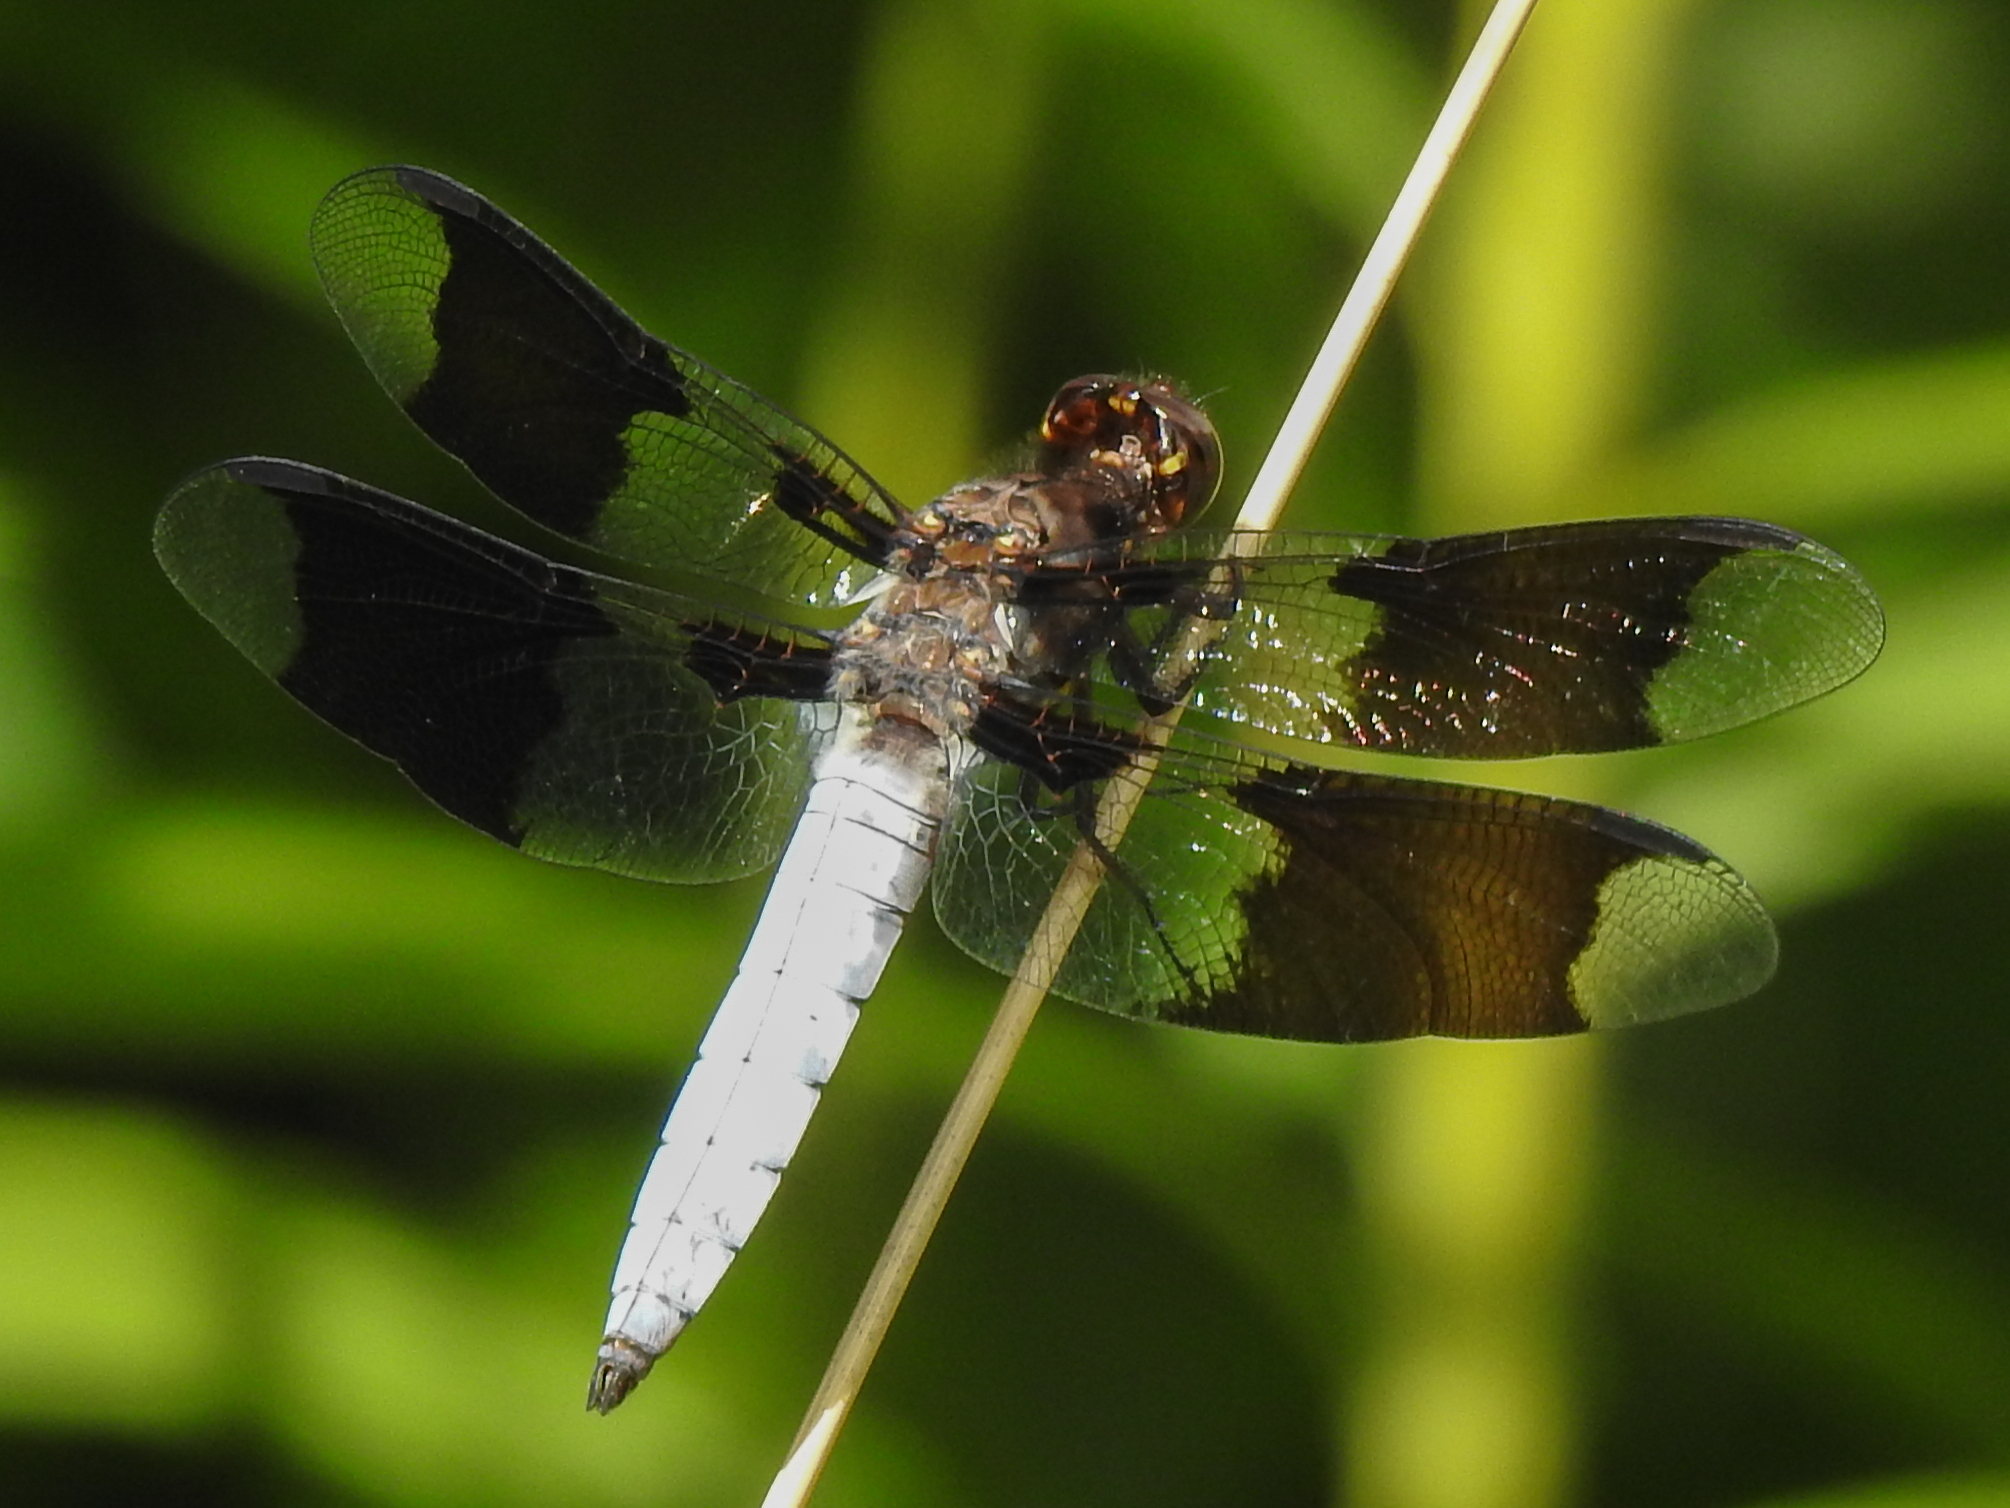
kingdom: Animalia
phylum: Arthropoda
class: Insecta
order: Odonata
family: Libellulidae
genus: Plathemis
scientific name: Plathemis lydia
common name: Common whitetail
